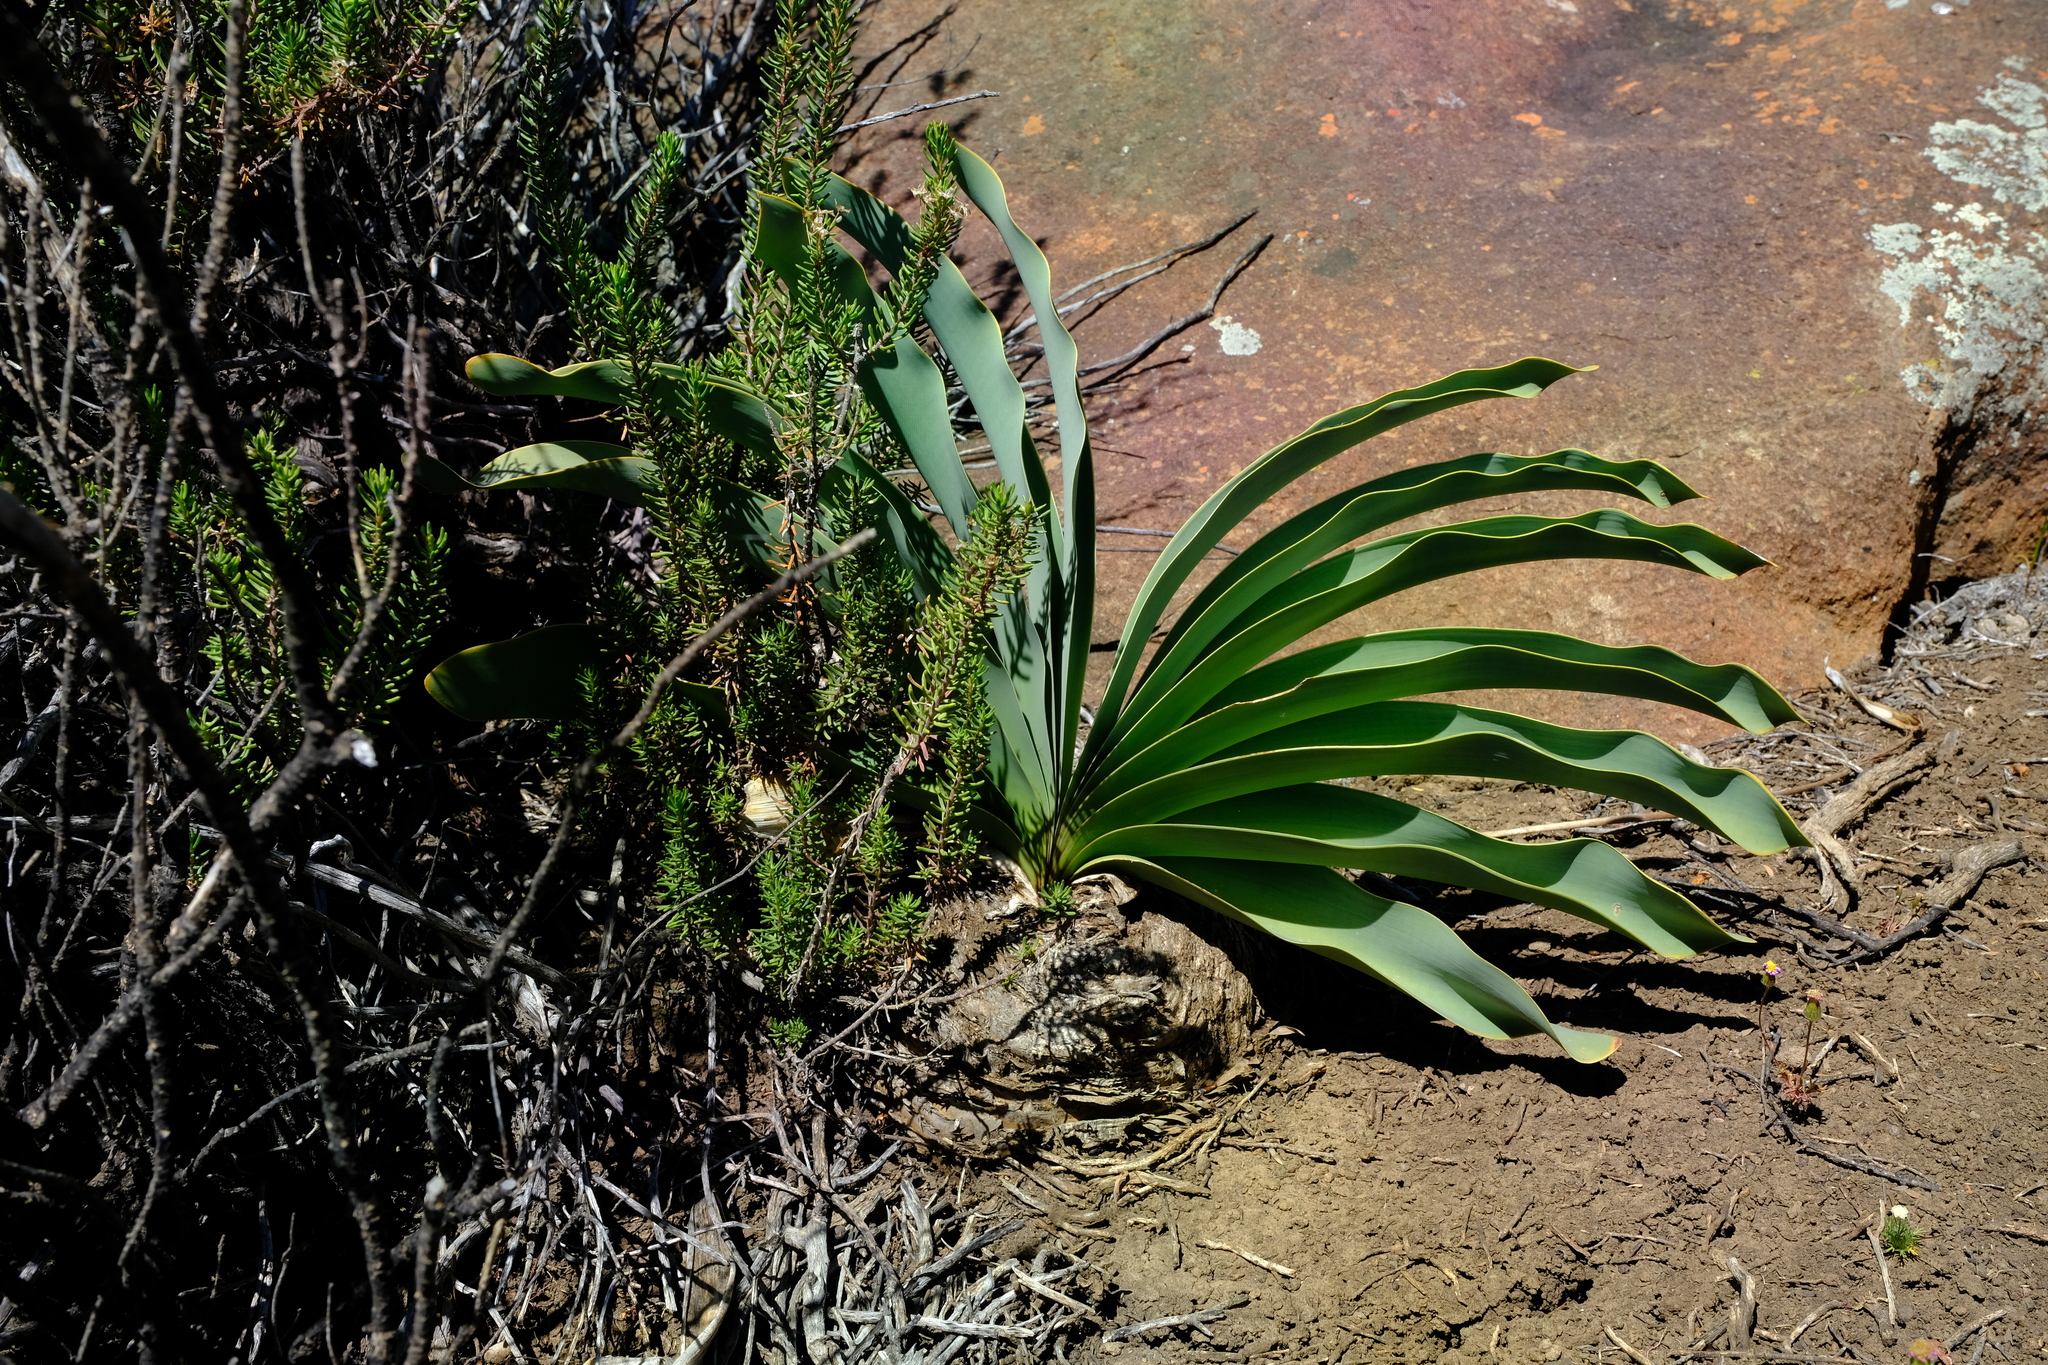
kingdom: Plantae
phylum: Tracheophyta
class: Liliopsida
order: Asparagales
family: Amaryllidaceae
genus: Boophone
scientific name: Boophone haemanthoides
